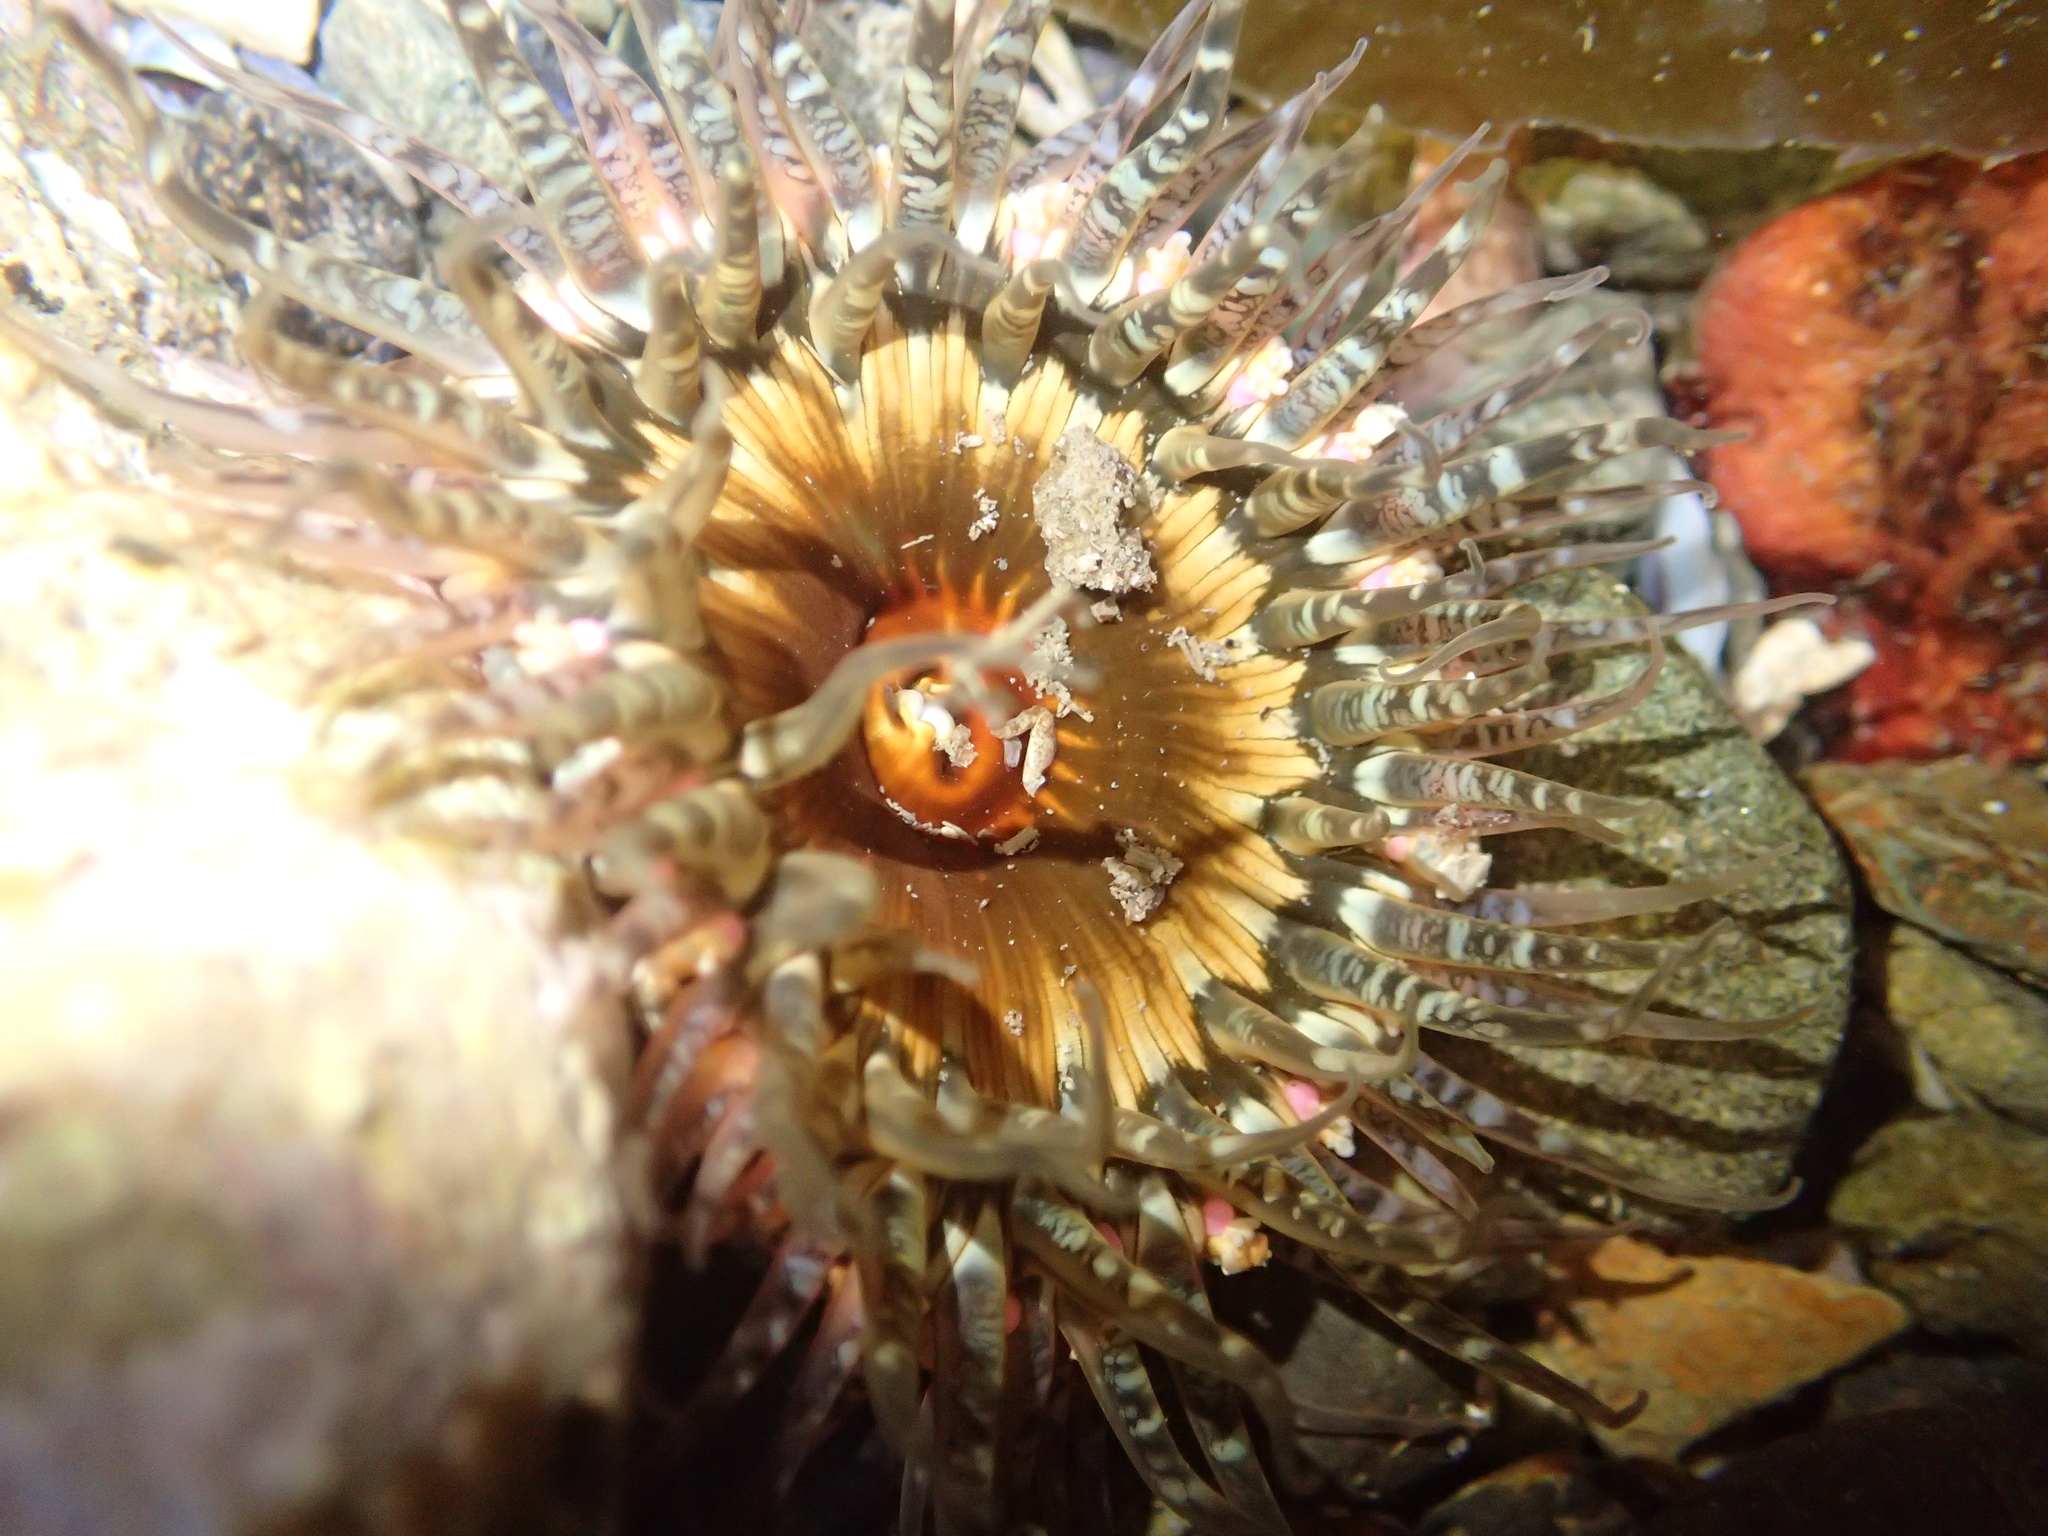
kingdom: Animalia
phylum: Cnidaria
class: Anthozoa
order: Actiniaria
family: Actiniidae
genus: Oulactis
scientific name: Oulactis muscosa
